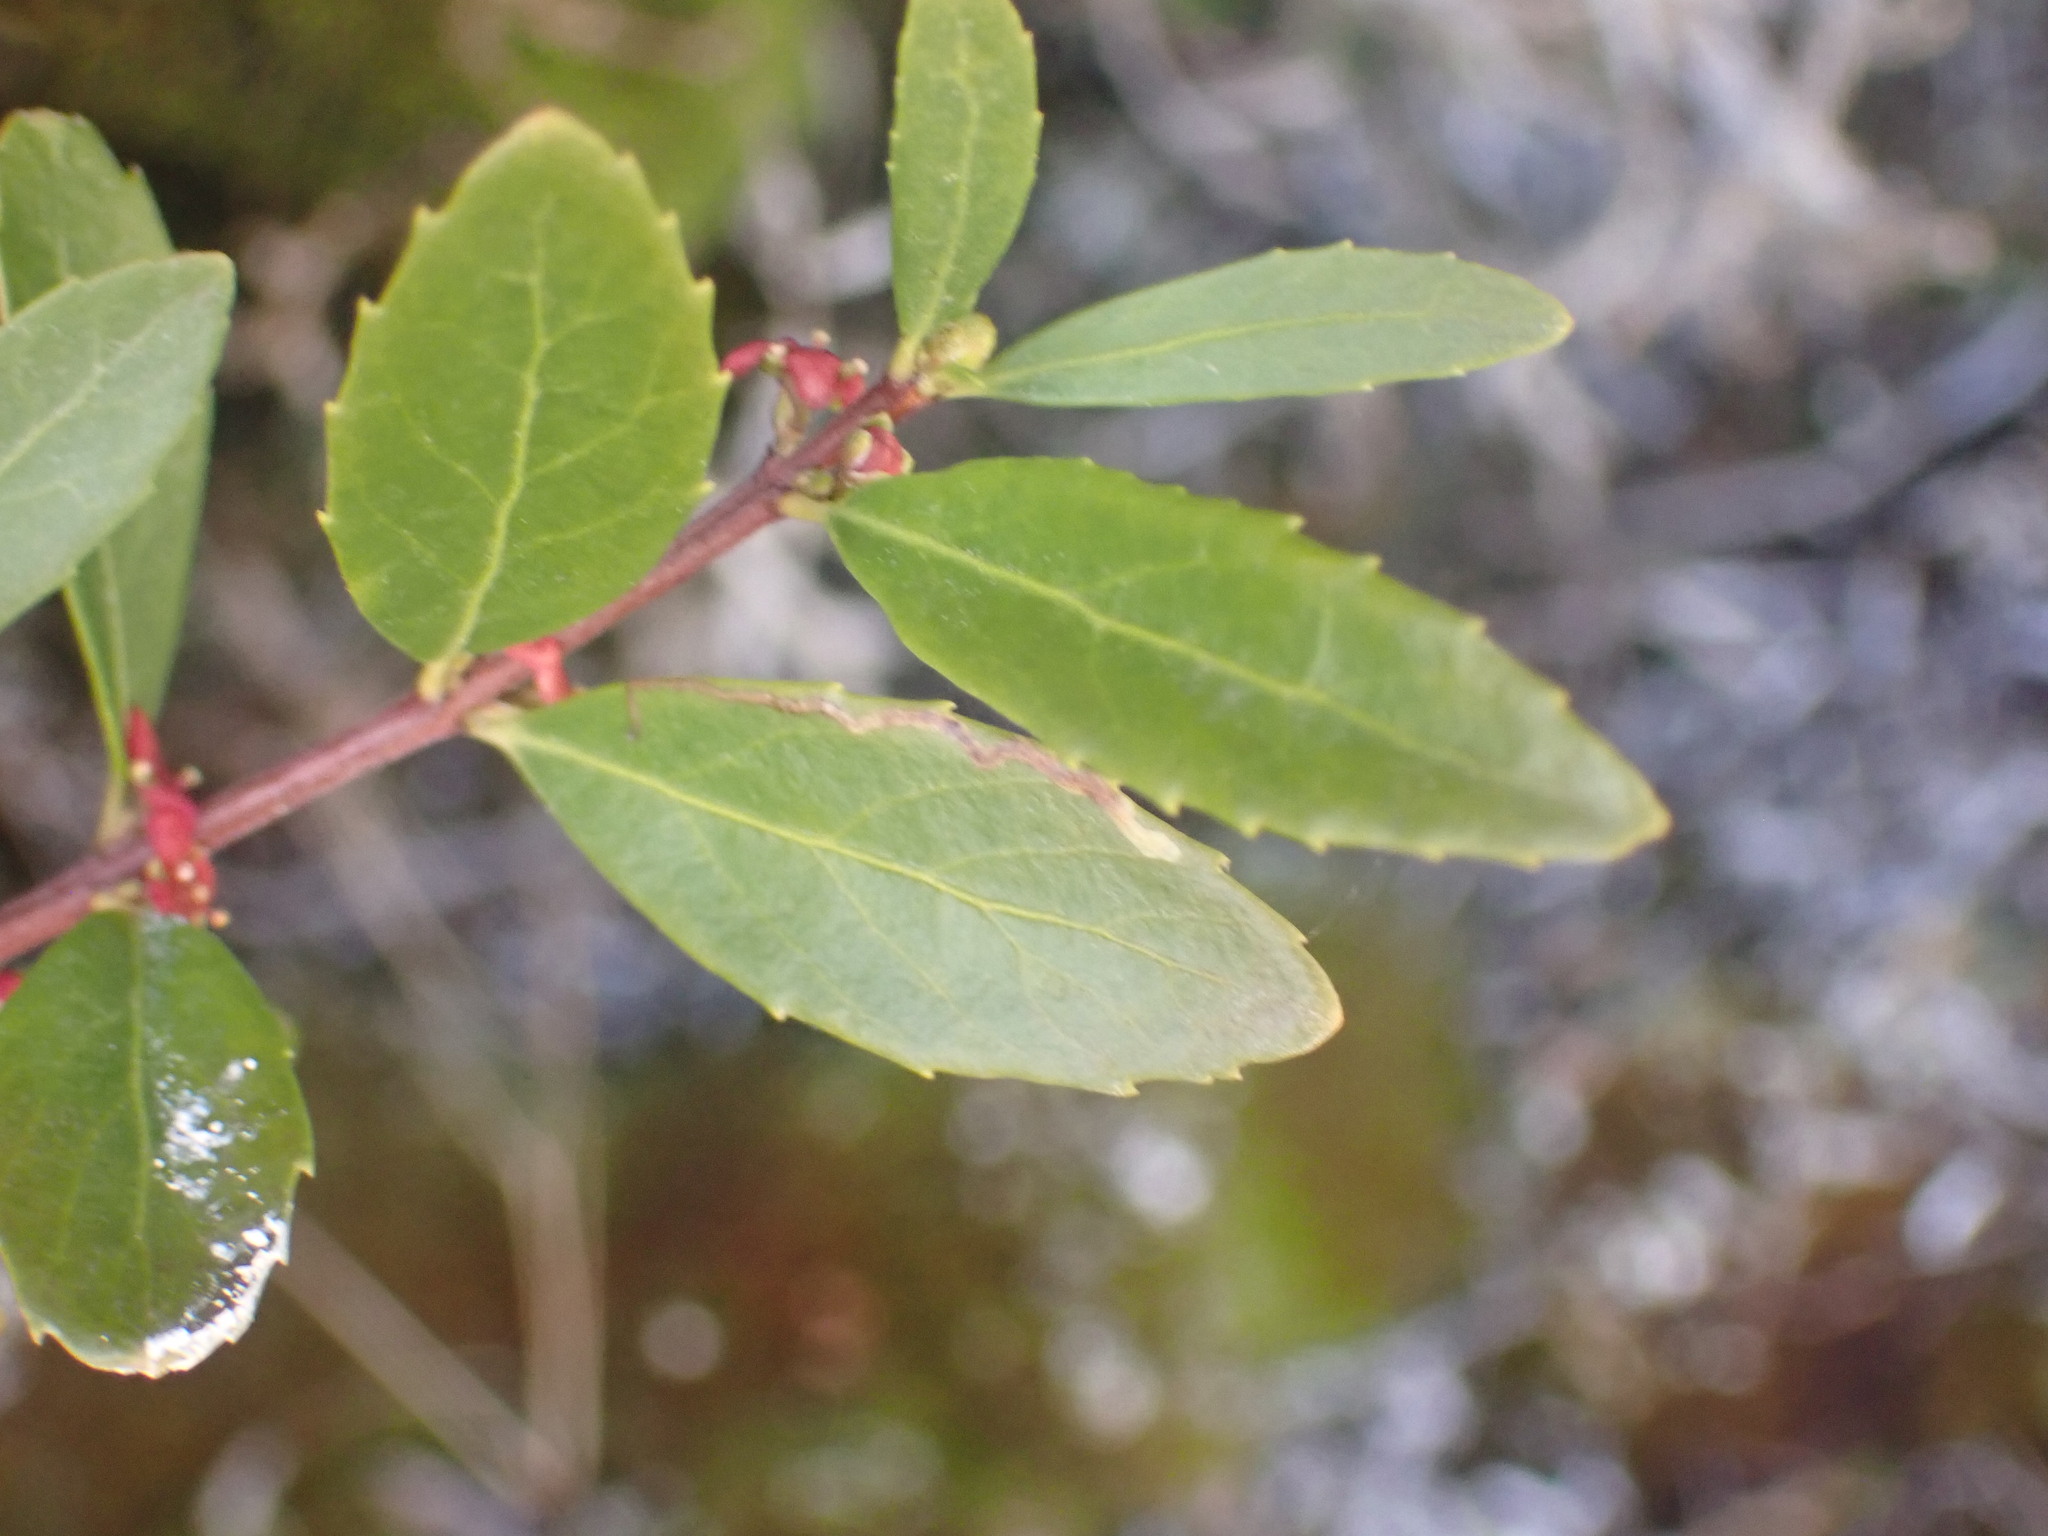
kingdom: Plantae
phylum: Tracheophyta
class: Magnoliopsida
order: Celastrales
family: Celastraceae
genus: Paxistima
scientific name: Paxistima myrsinites
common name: Mountain-lover
